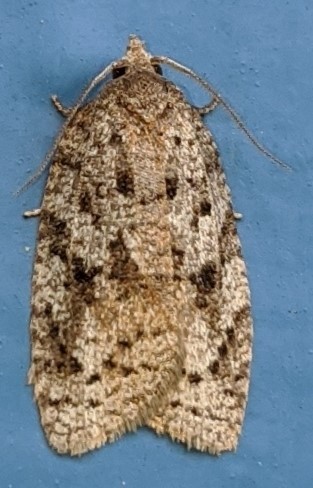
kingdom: Animalia
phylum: Arthropoda
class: Insecta
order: Lepidoptera
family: Tortricidae
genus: Choristoneura
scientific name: Choristoneura fumiferana
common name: Spruce budworm
